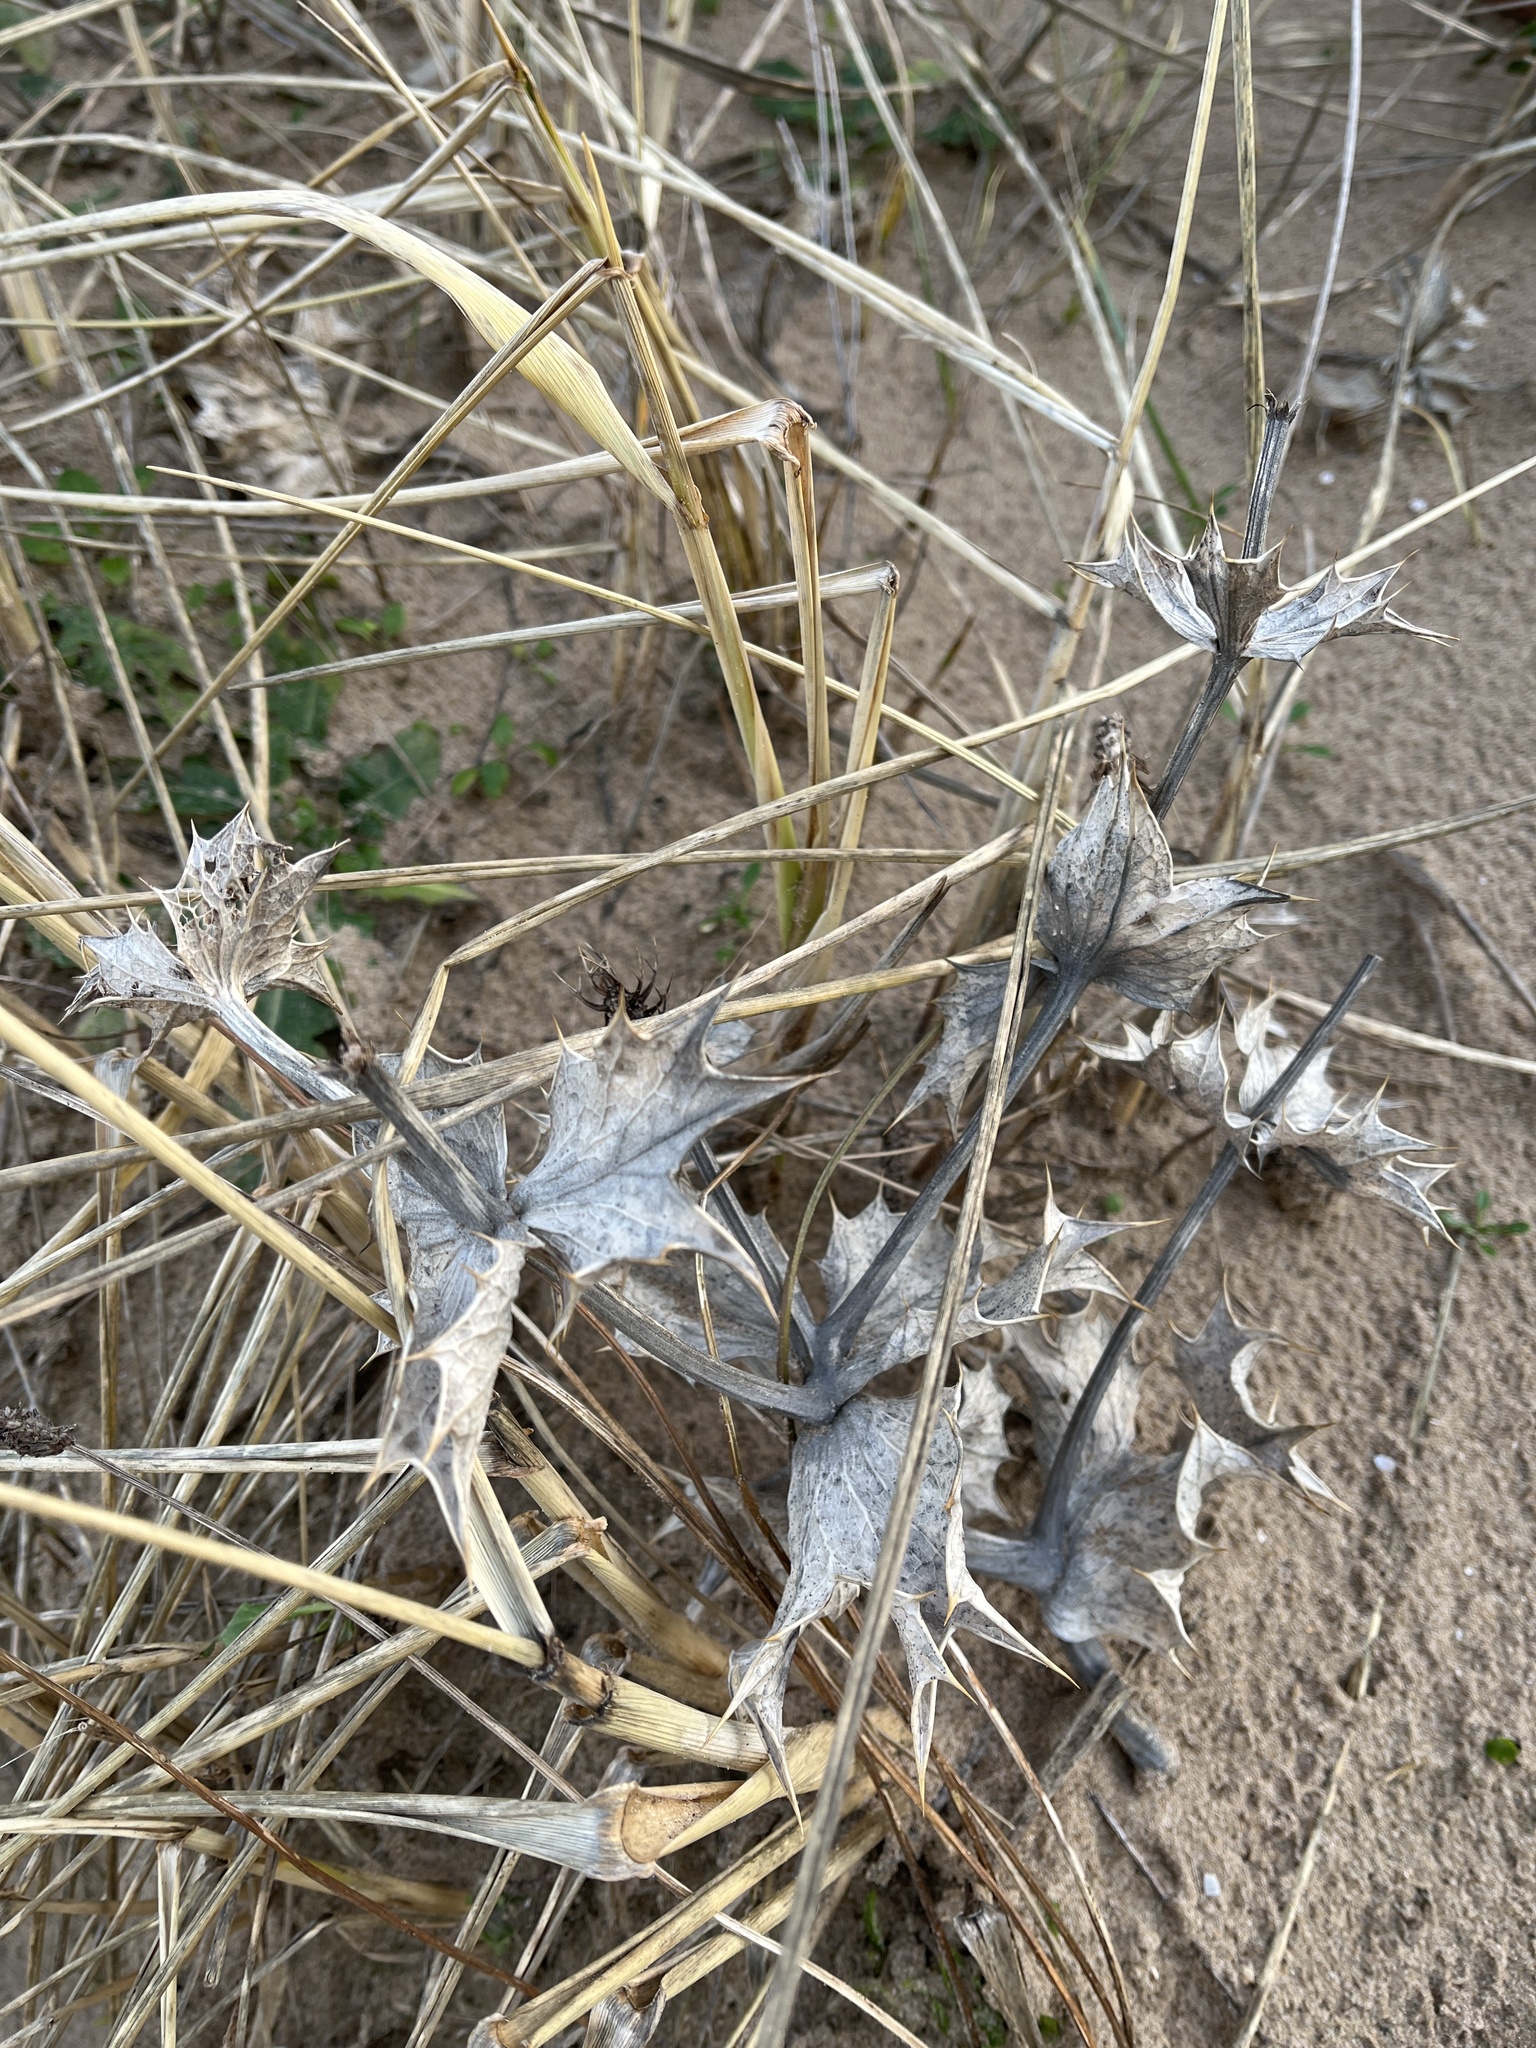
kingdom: Plantae
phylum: Tracheophyta
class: Magnoliopsida
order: Apiales
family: Apiaceae
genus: Eryngium
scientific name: Eryngium maritimum
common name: Sea-holly
